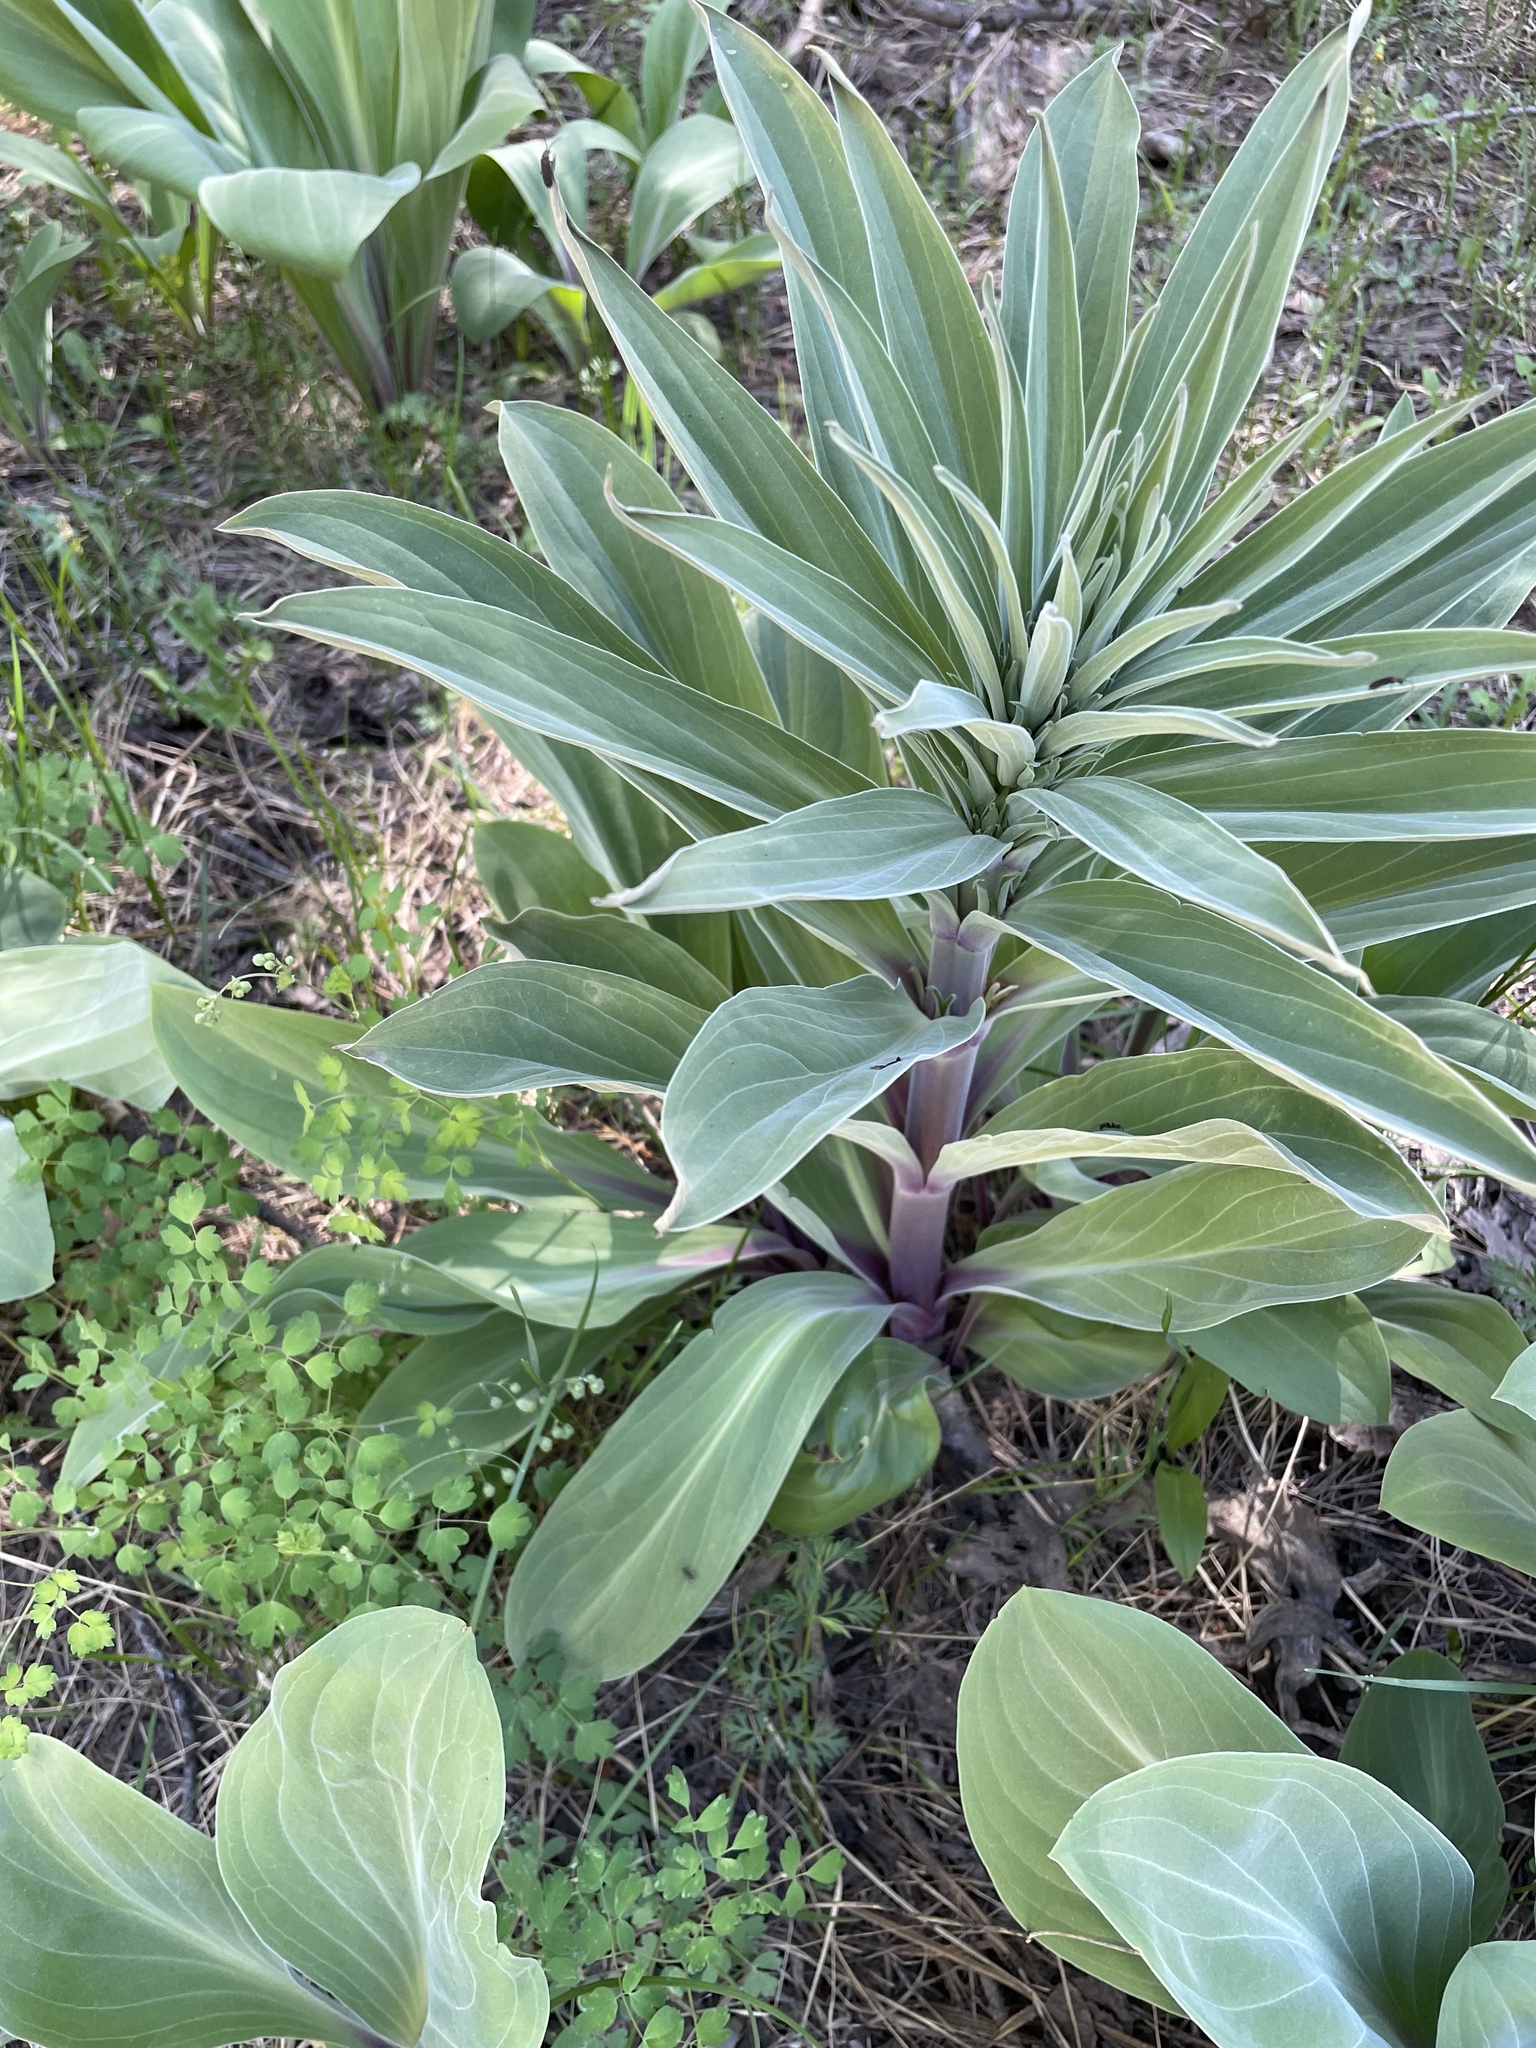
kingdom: Plantae
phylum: Tracheophyta
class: Magnoliopsida
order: Gentianales
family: Gentianaceae
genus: Frasera
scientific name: Frasera speciosa
